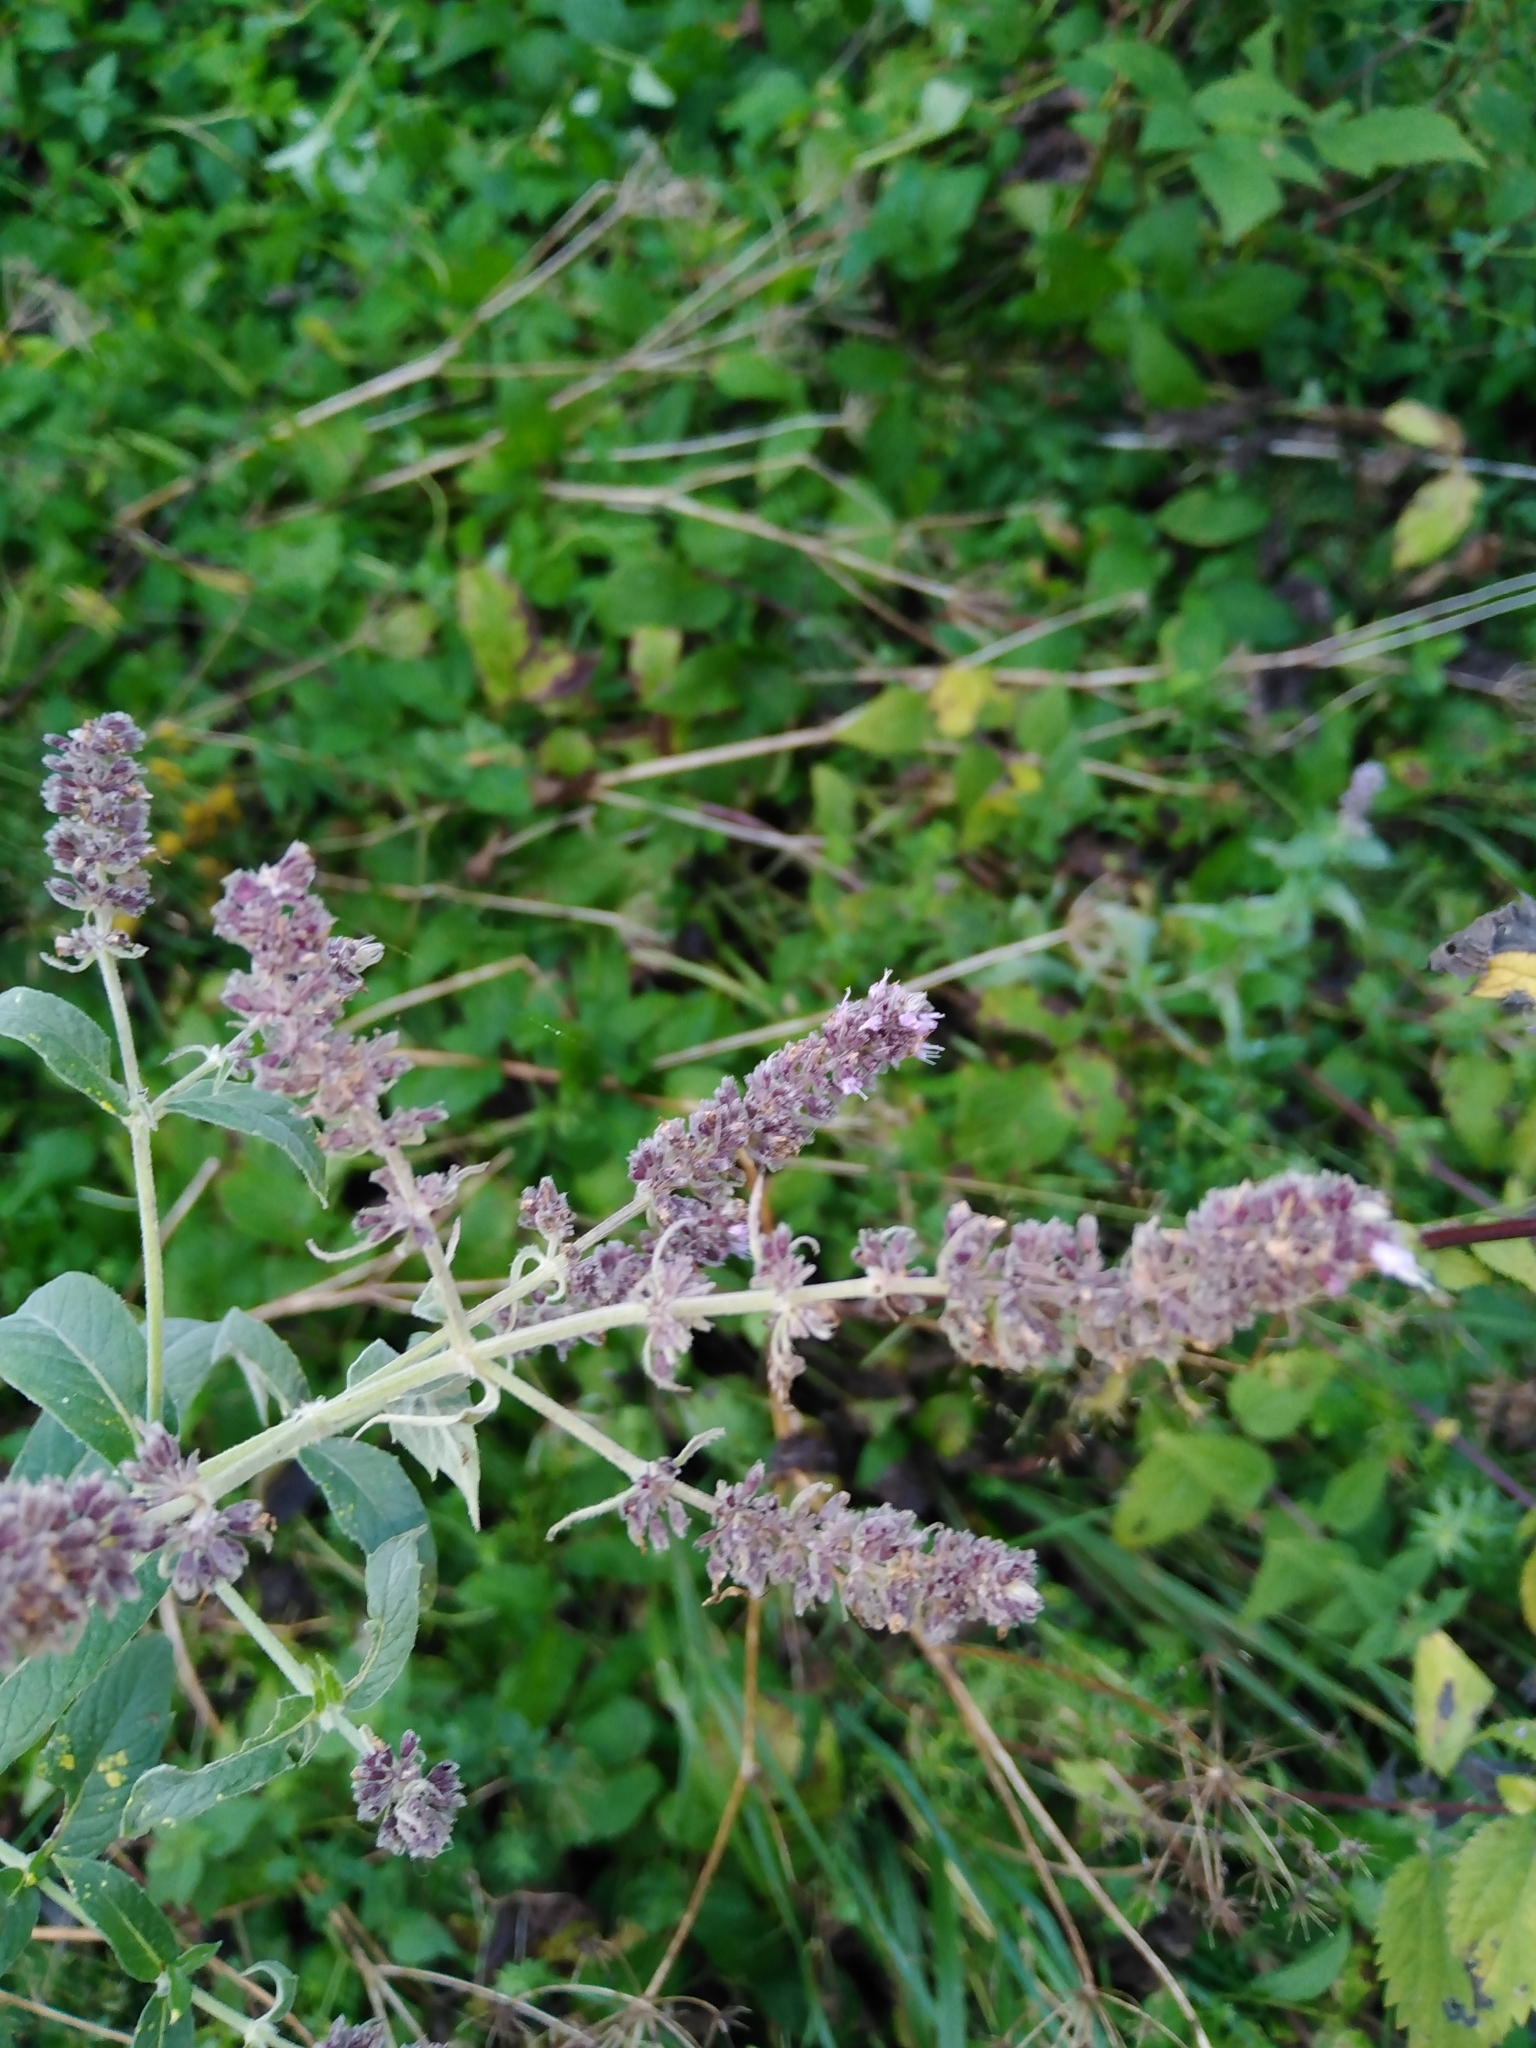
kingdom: Plantae
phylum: Tracheophyta
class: Magnoliopsida
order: Lamiales
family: Lamiaceae
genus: Mentha
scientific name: Mentha longifolia
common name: Horse mint
